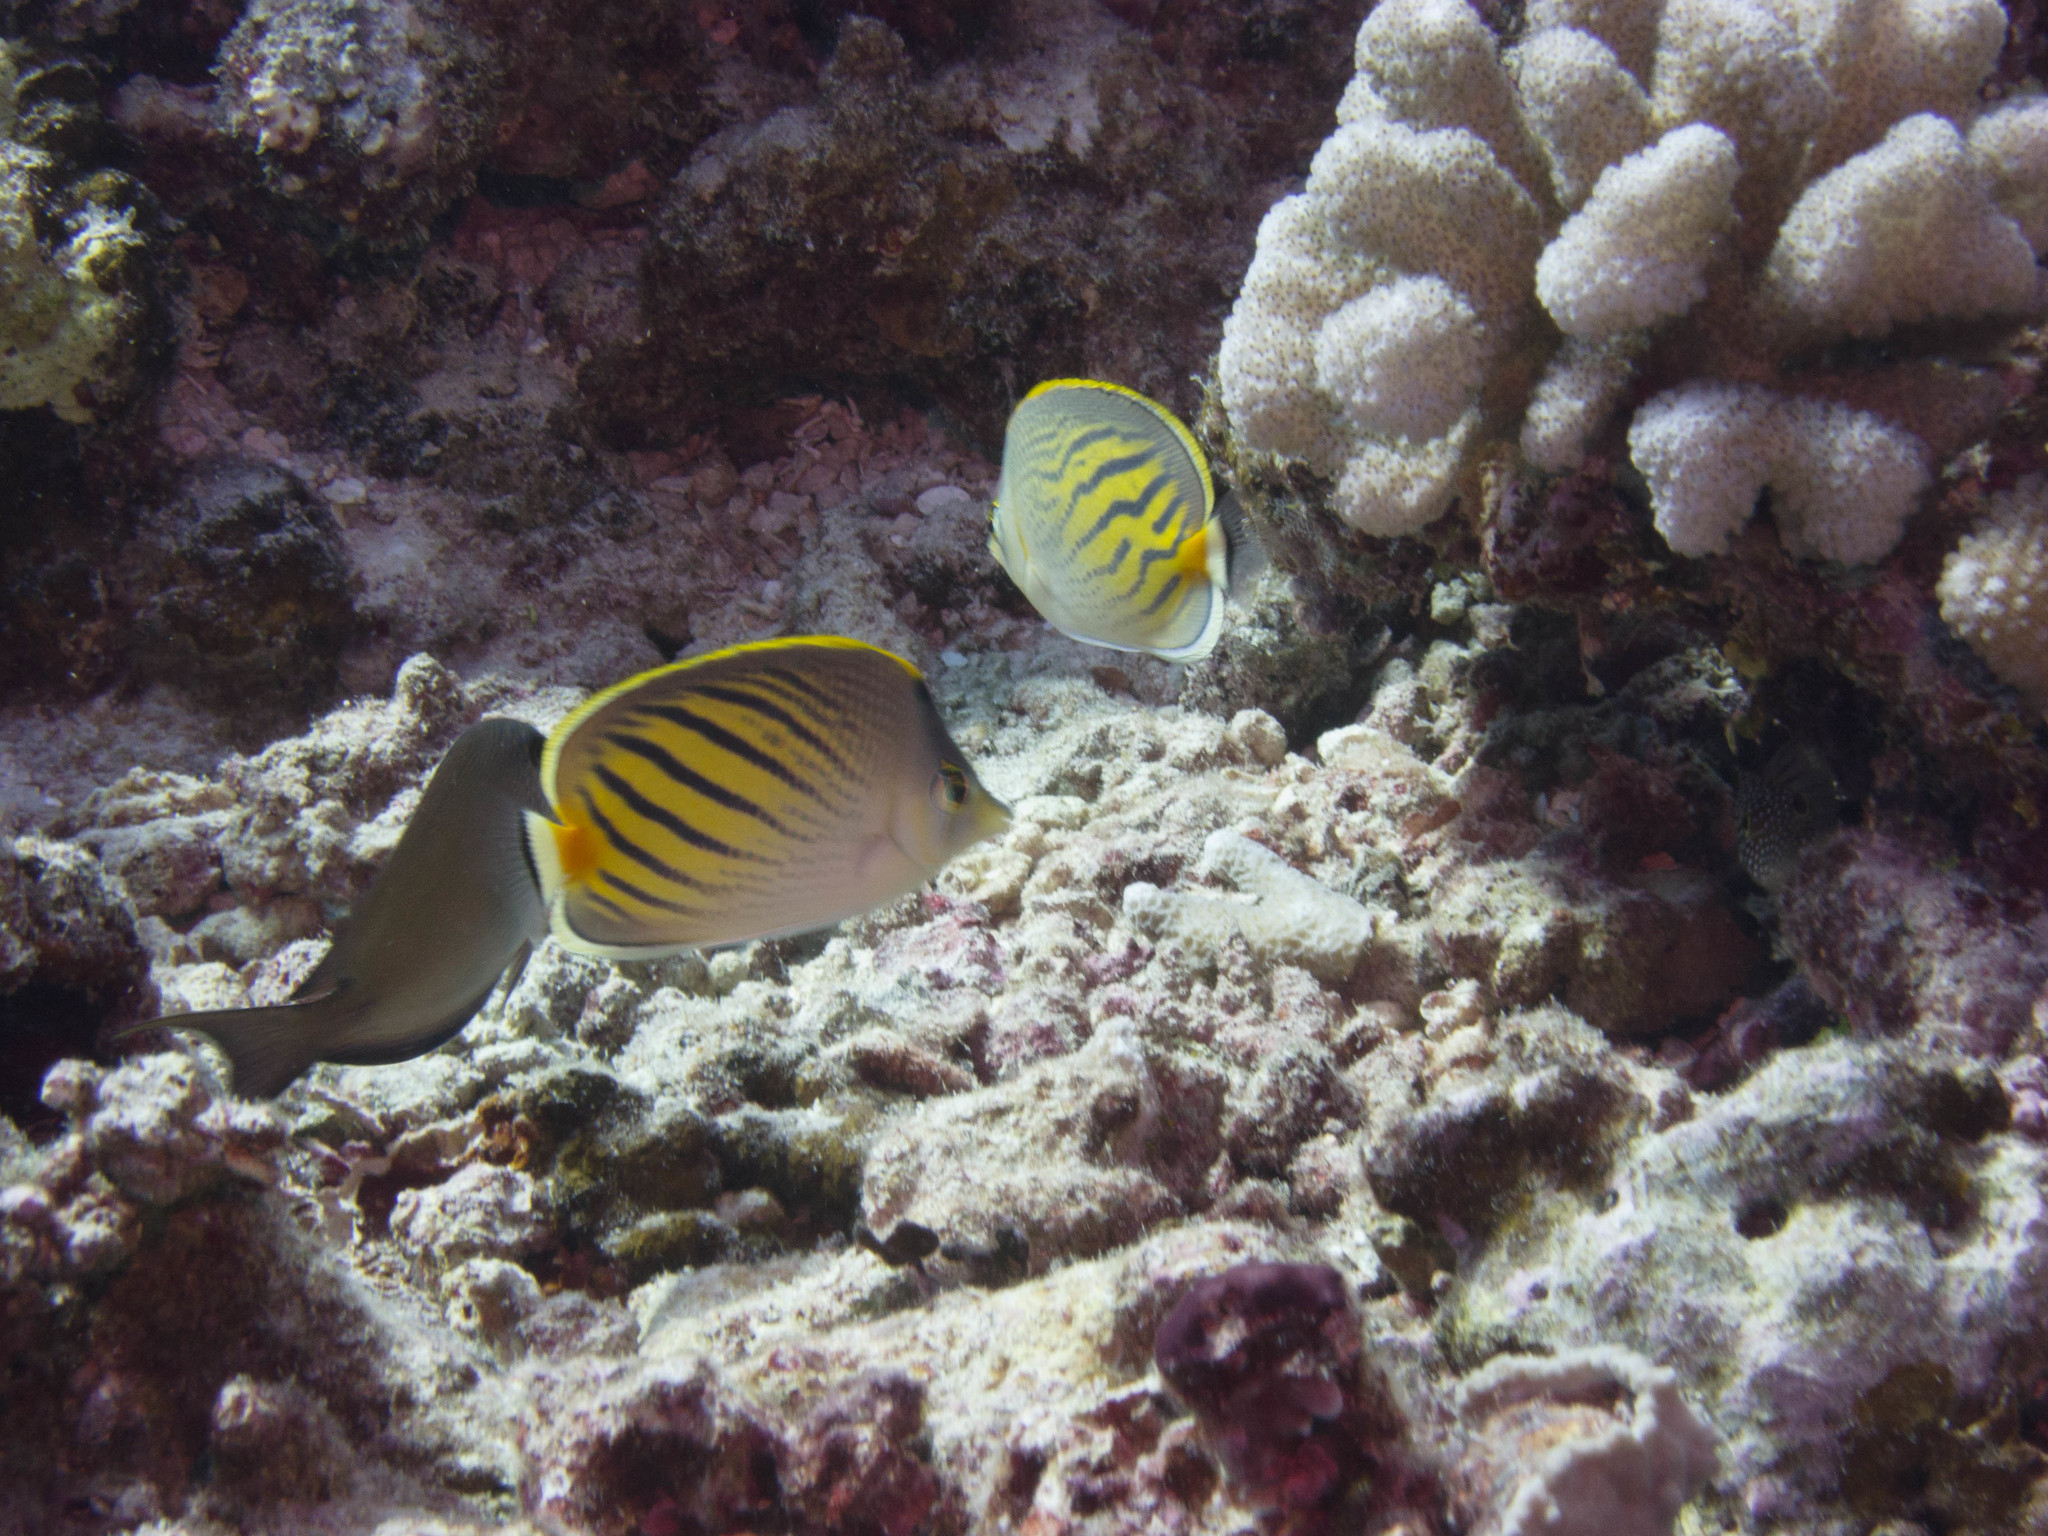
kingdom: Animalia
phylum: Chordata
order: Perciformes
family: Chaetodontidae
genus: Chaetodon
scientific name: Chaetodon pelewensis
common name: Dot-and-dash butterflyfish
